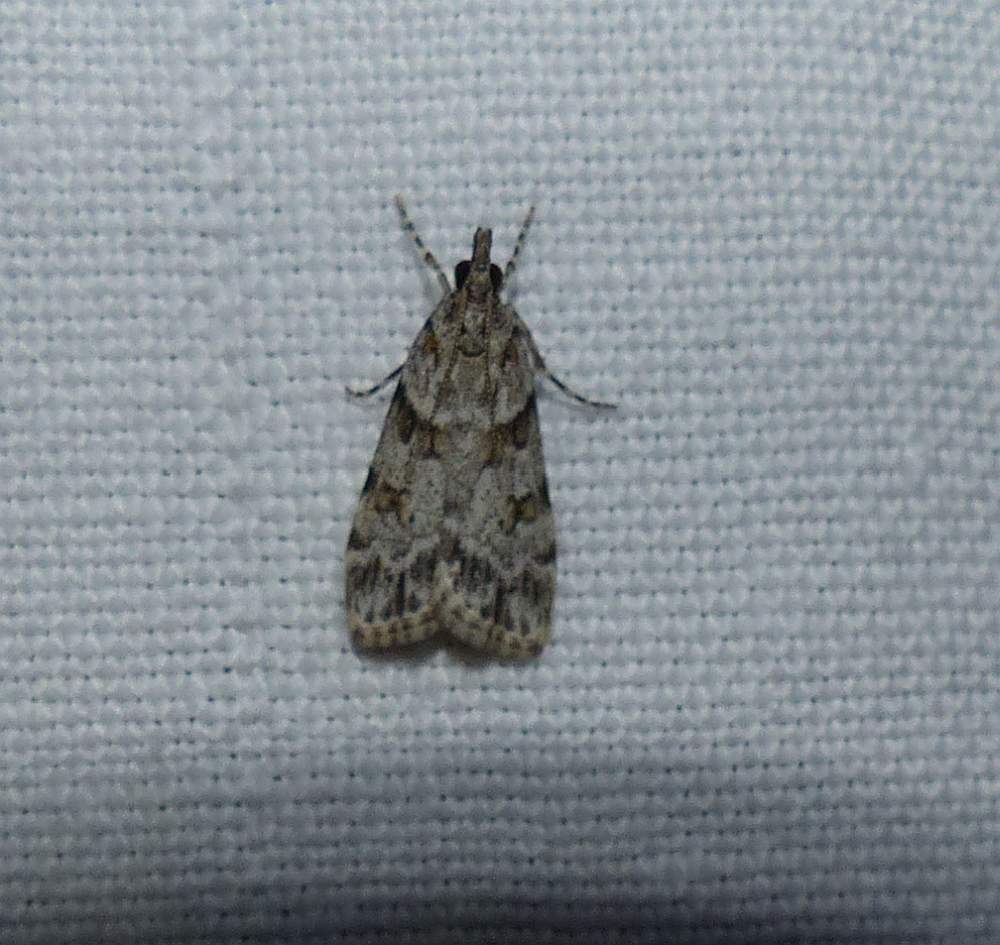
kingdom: Animalia
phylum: Arthropoda
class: Insecta
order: Lepidoptera
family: Crambidae
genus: Scoparia
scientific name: Scoparia biplagialis
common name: Double-striped scoparia moth
